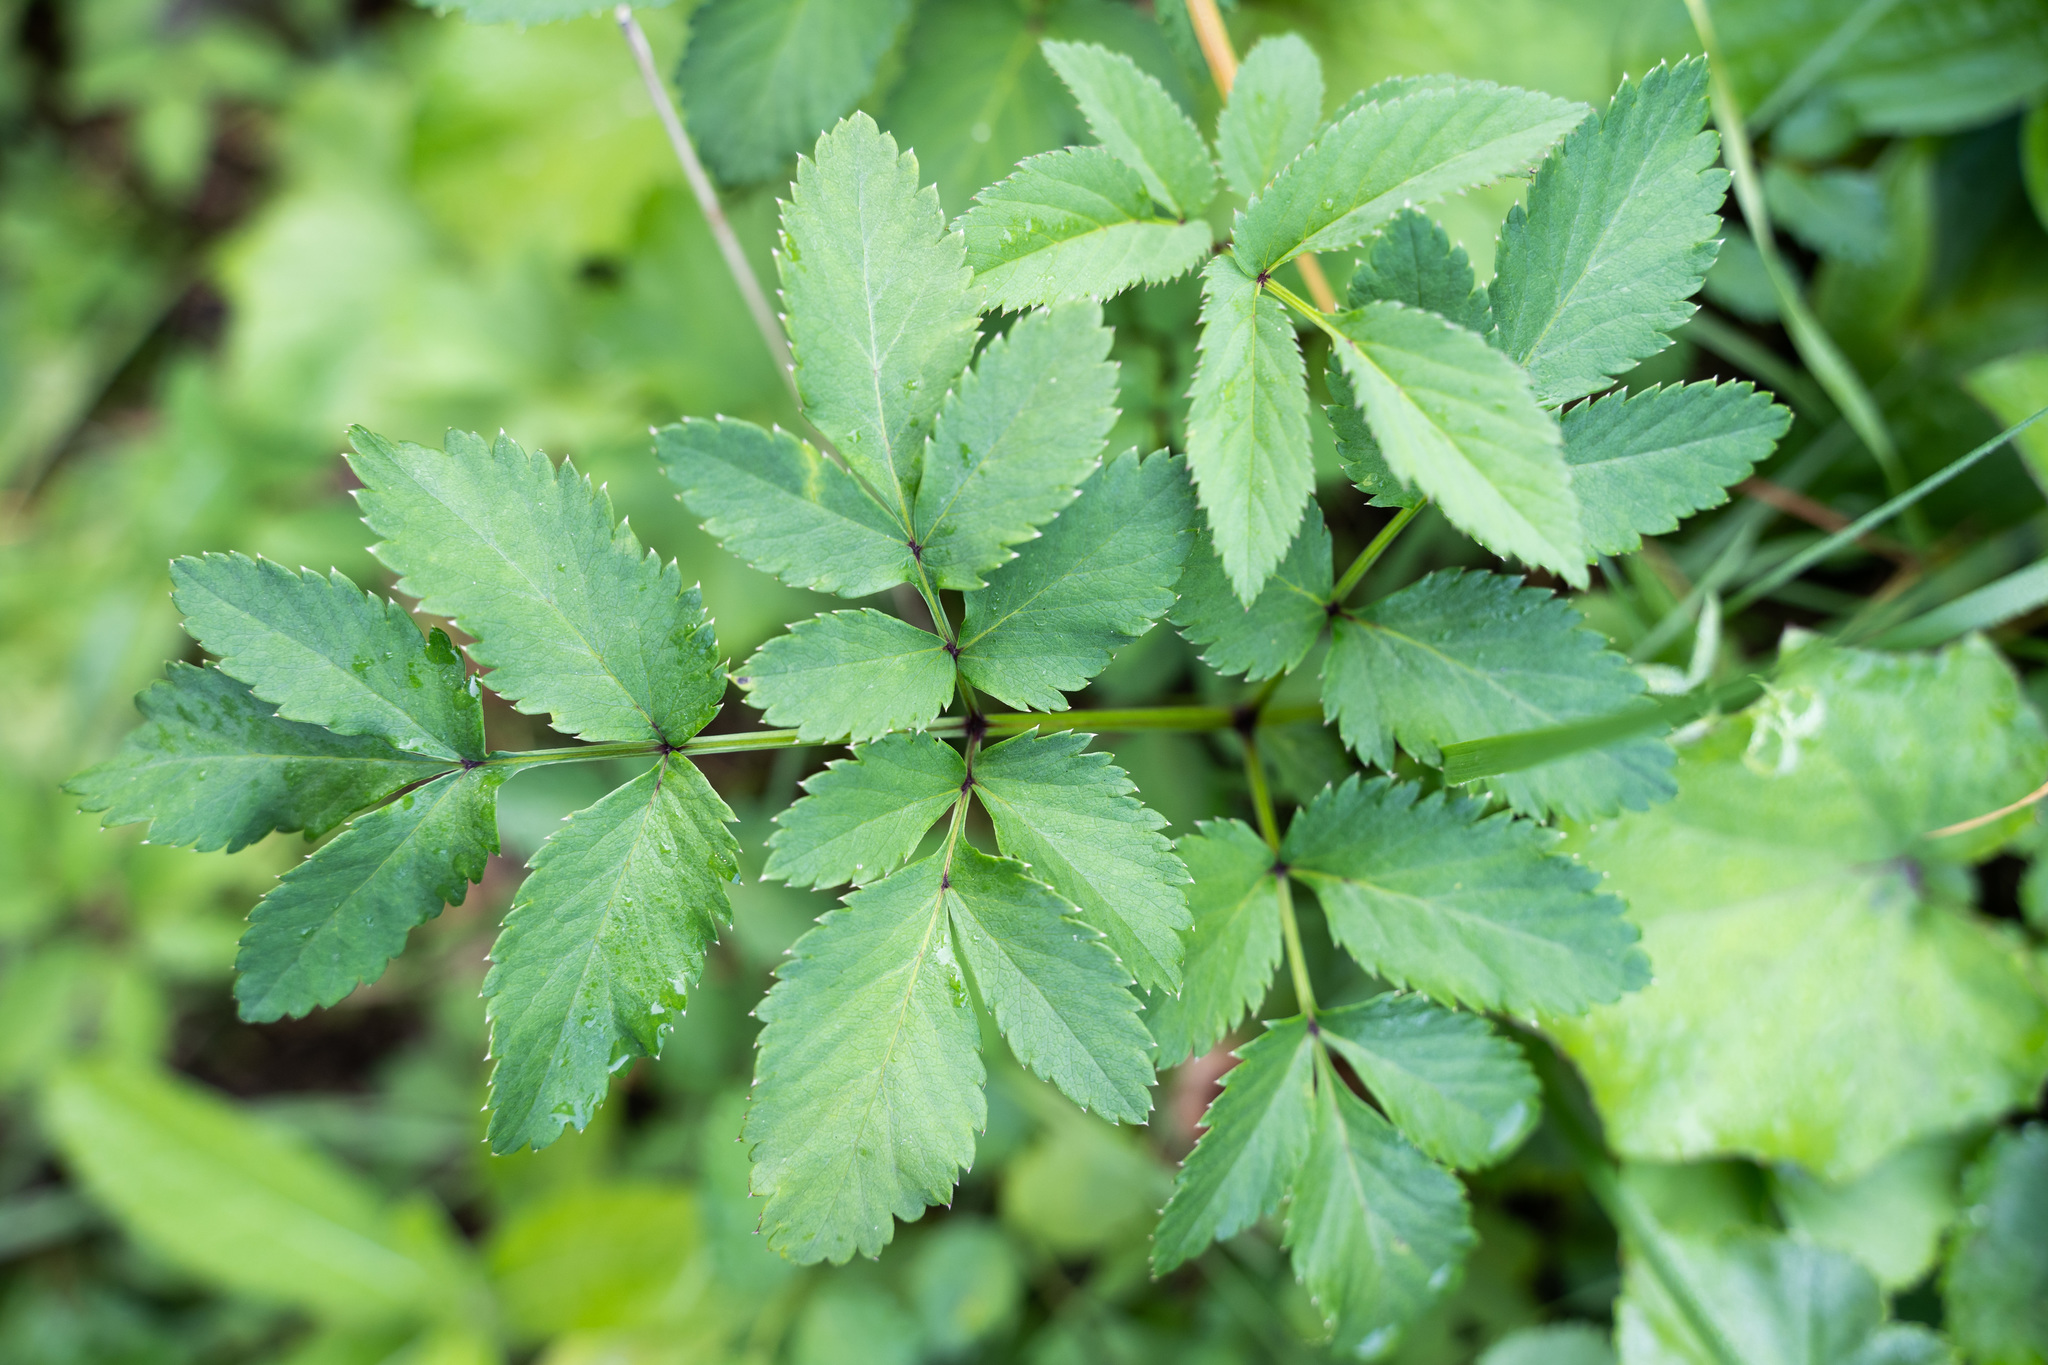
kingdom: Plantae
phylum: Tracheophyta
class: Magnoliopsida
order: Apiales
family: Apiaceae
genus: Angelica
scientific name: Angelica sylvestris
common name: Wild angelica
